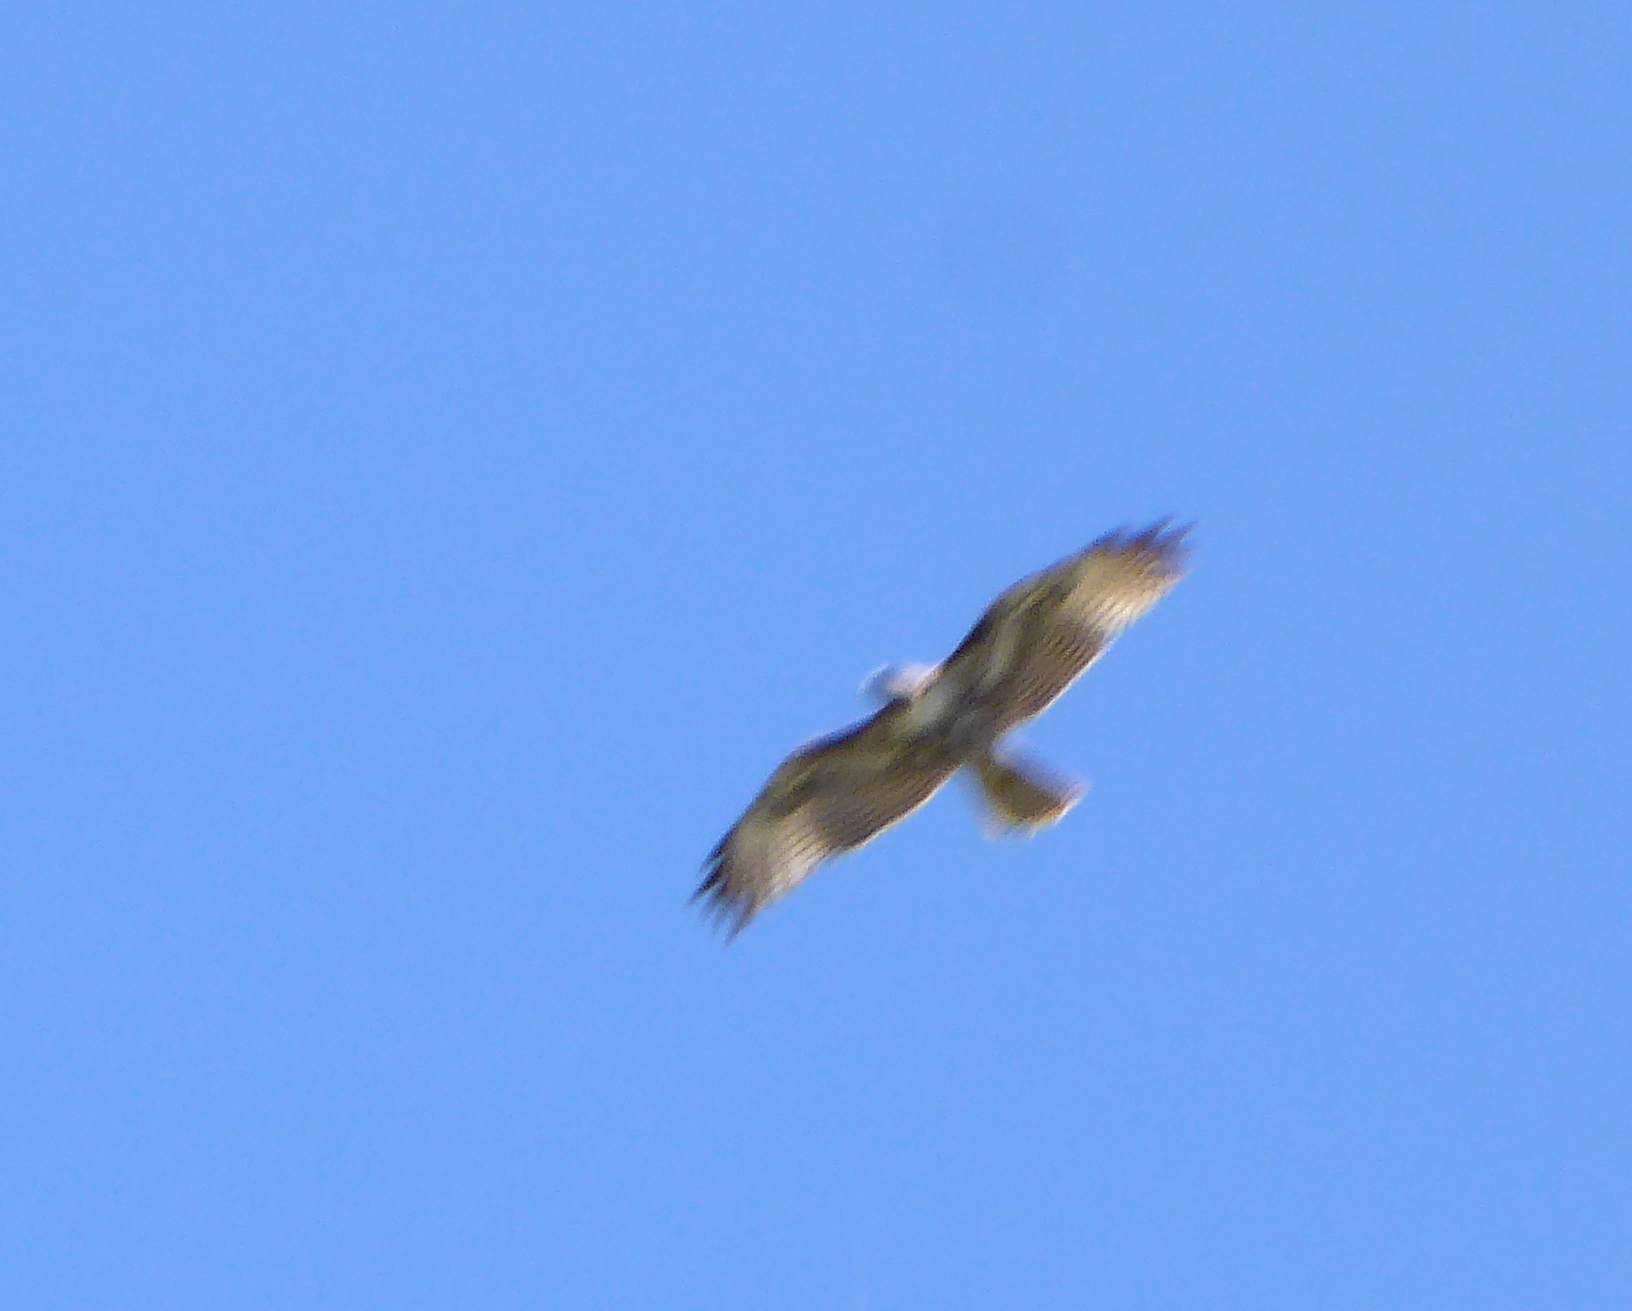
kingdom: Animalia
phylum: Chordata
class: Aves
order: Accipitriformes
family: Accipitridae
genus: Buteo
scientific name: Buteo jamaicensis
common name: Red-tailed hawk
